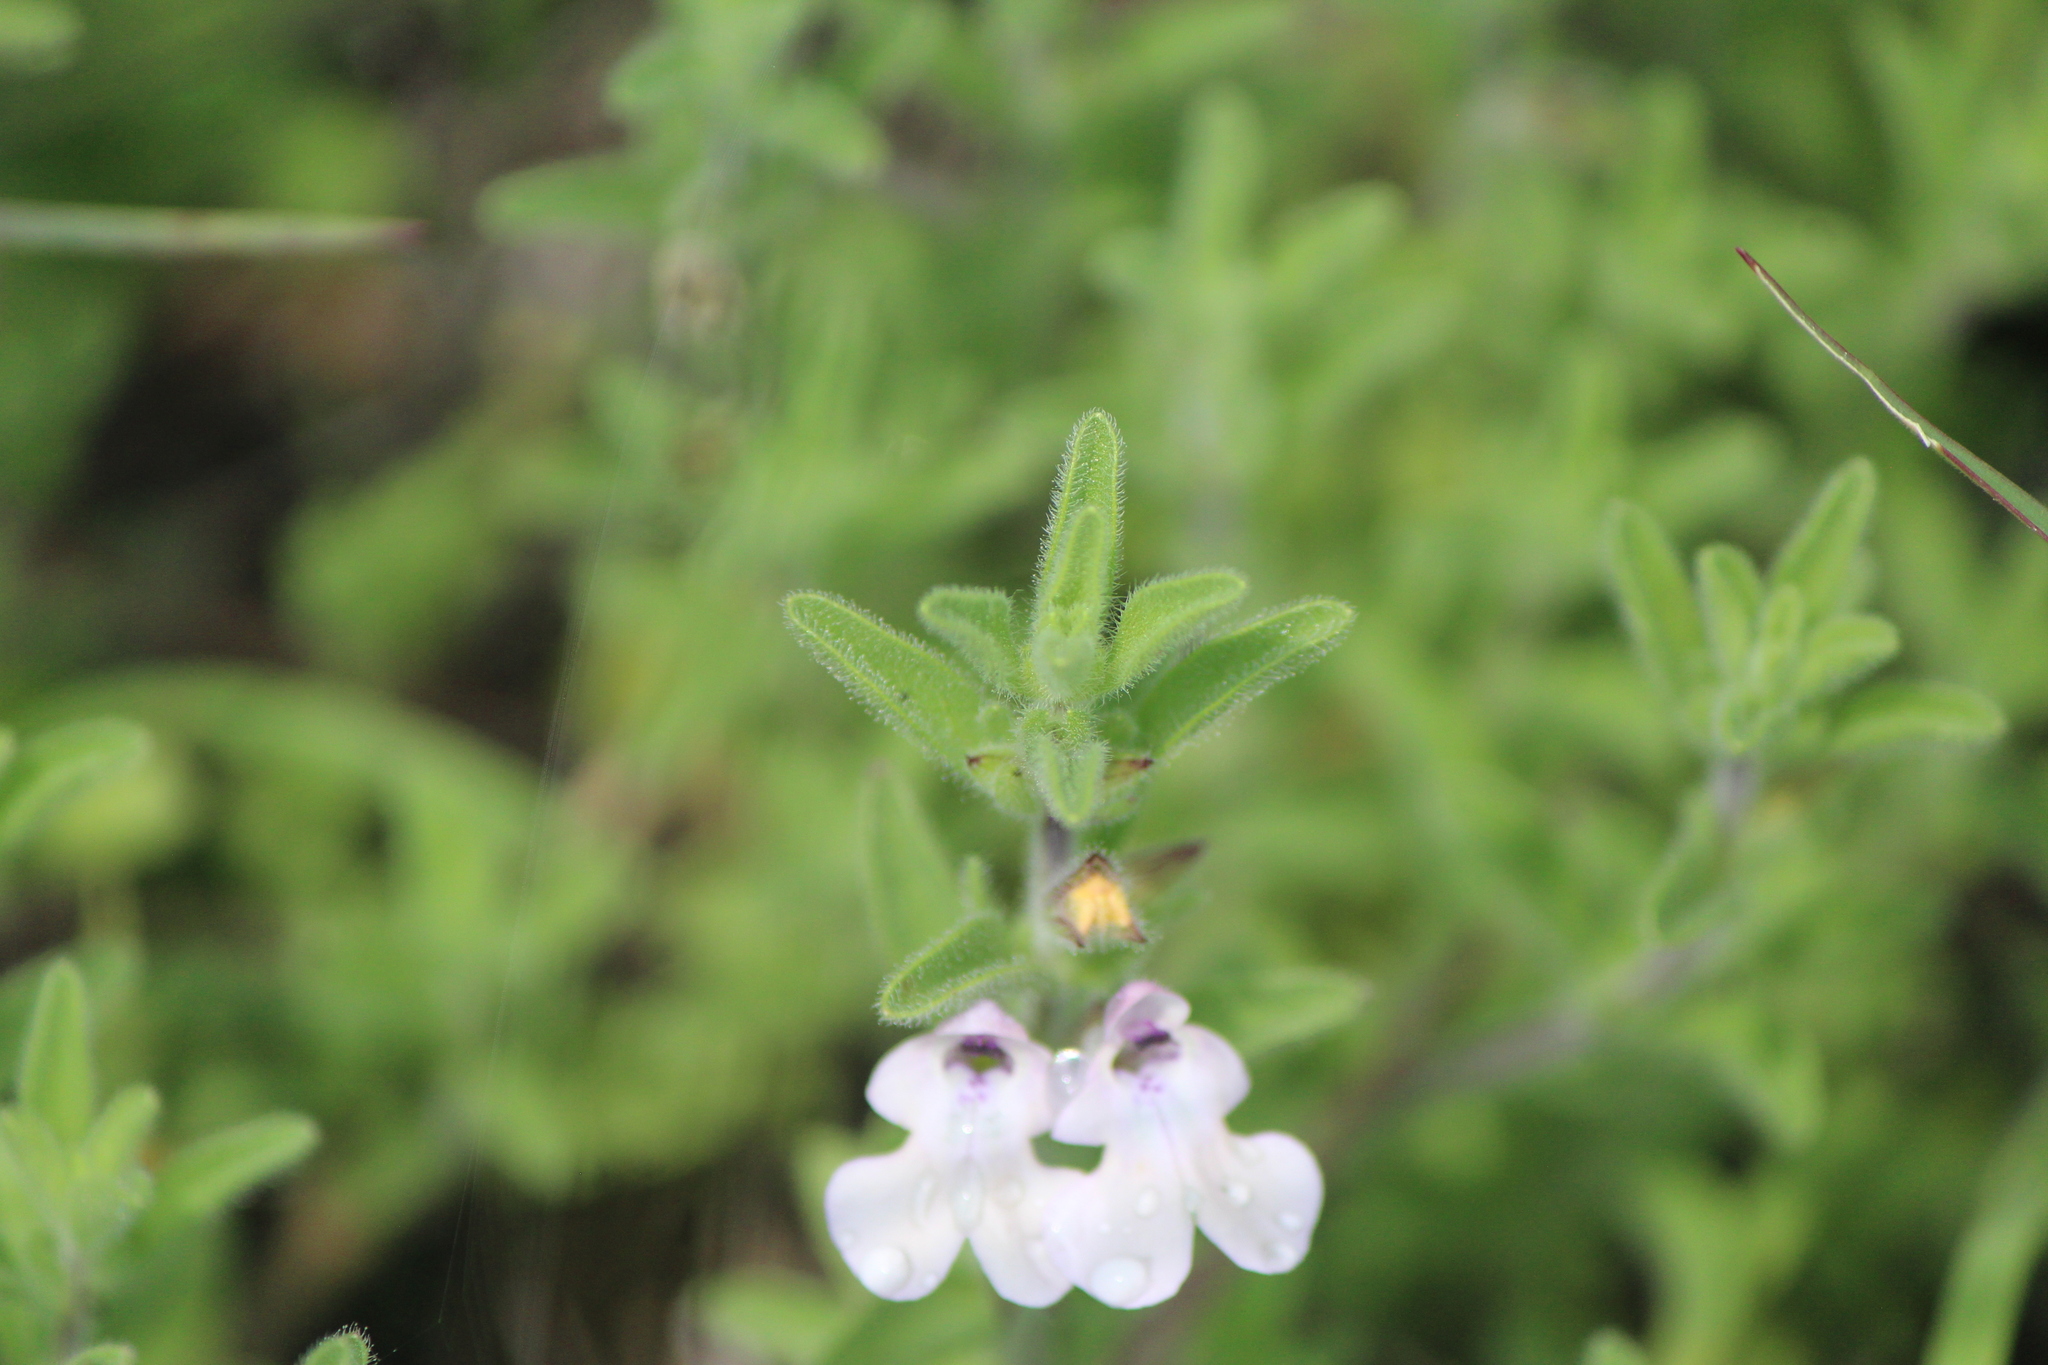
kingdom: Plantae
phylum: Tracheophyta
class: Magnoliopsida
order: Lamiales
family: Lamiaceae
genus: Salvia
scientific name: Salvia axillaris
